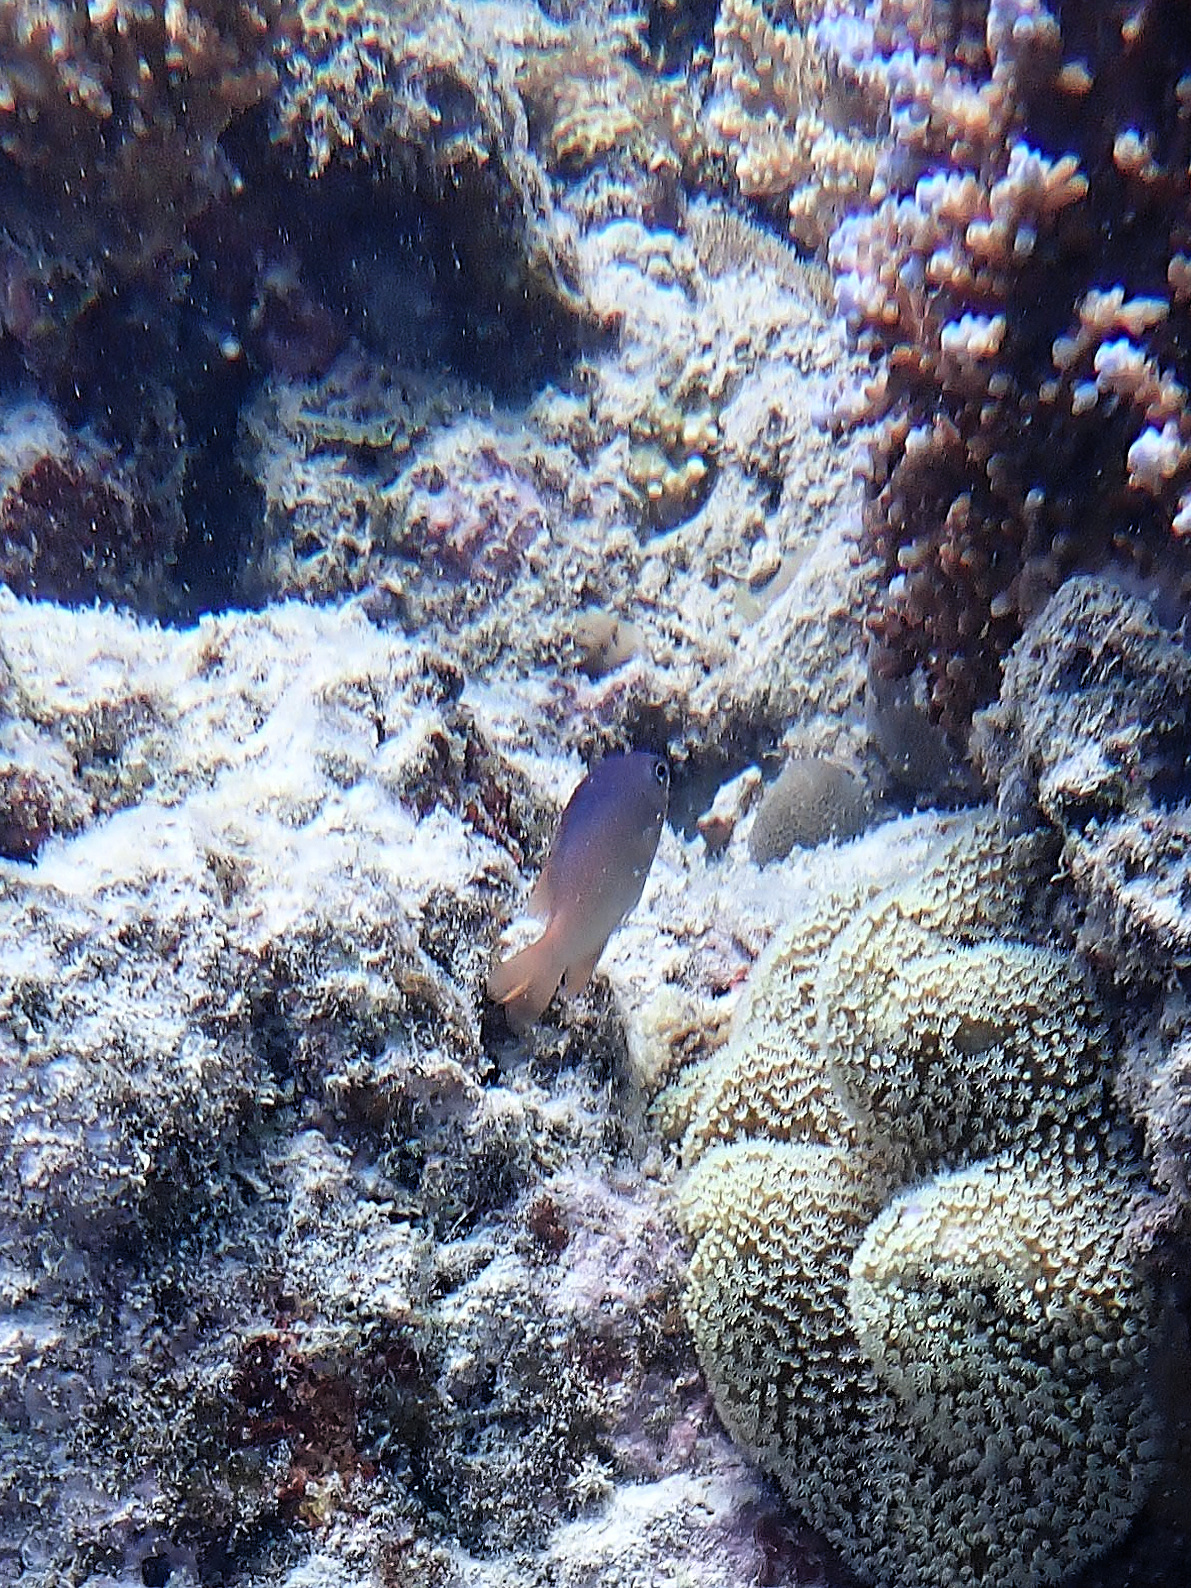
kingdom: Animalia
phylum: Chordata
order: Perciformes
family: Pomacentridae
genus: Chrysiptera
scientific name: Chrysiptera caesifrons
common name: Greyback damsel
